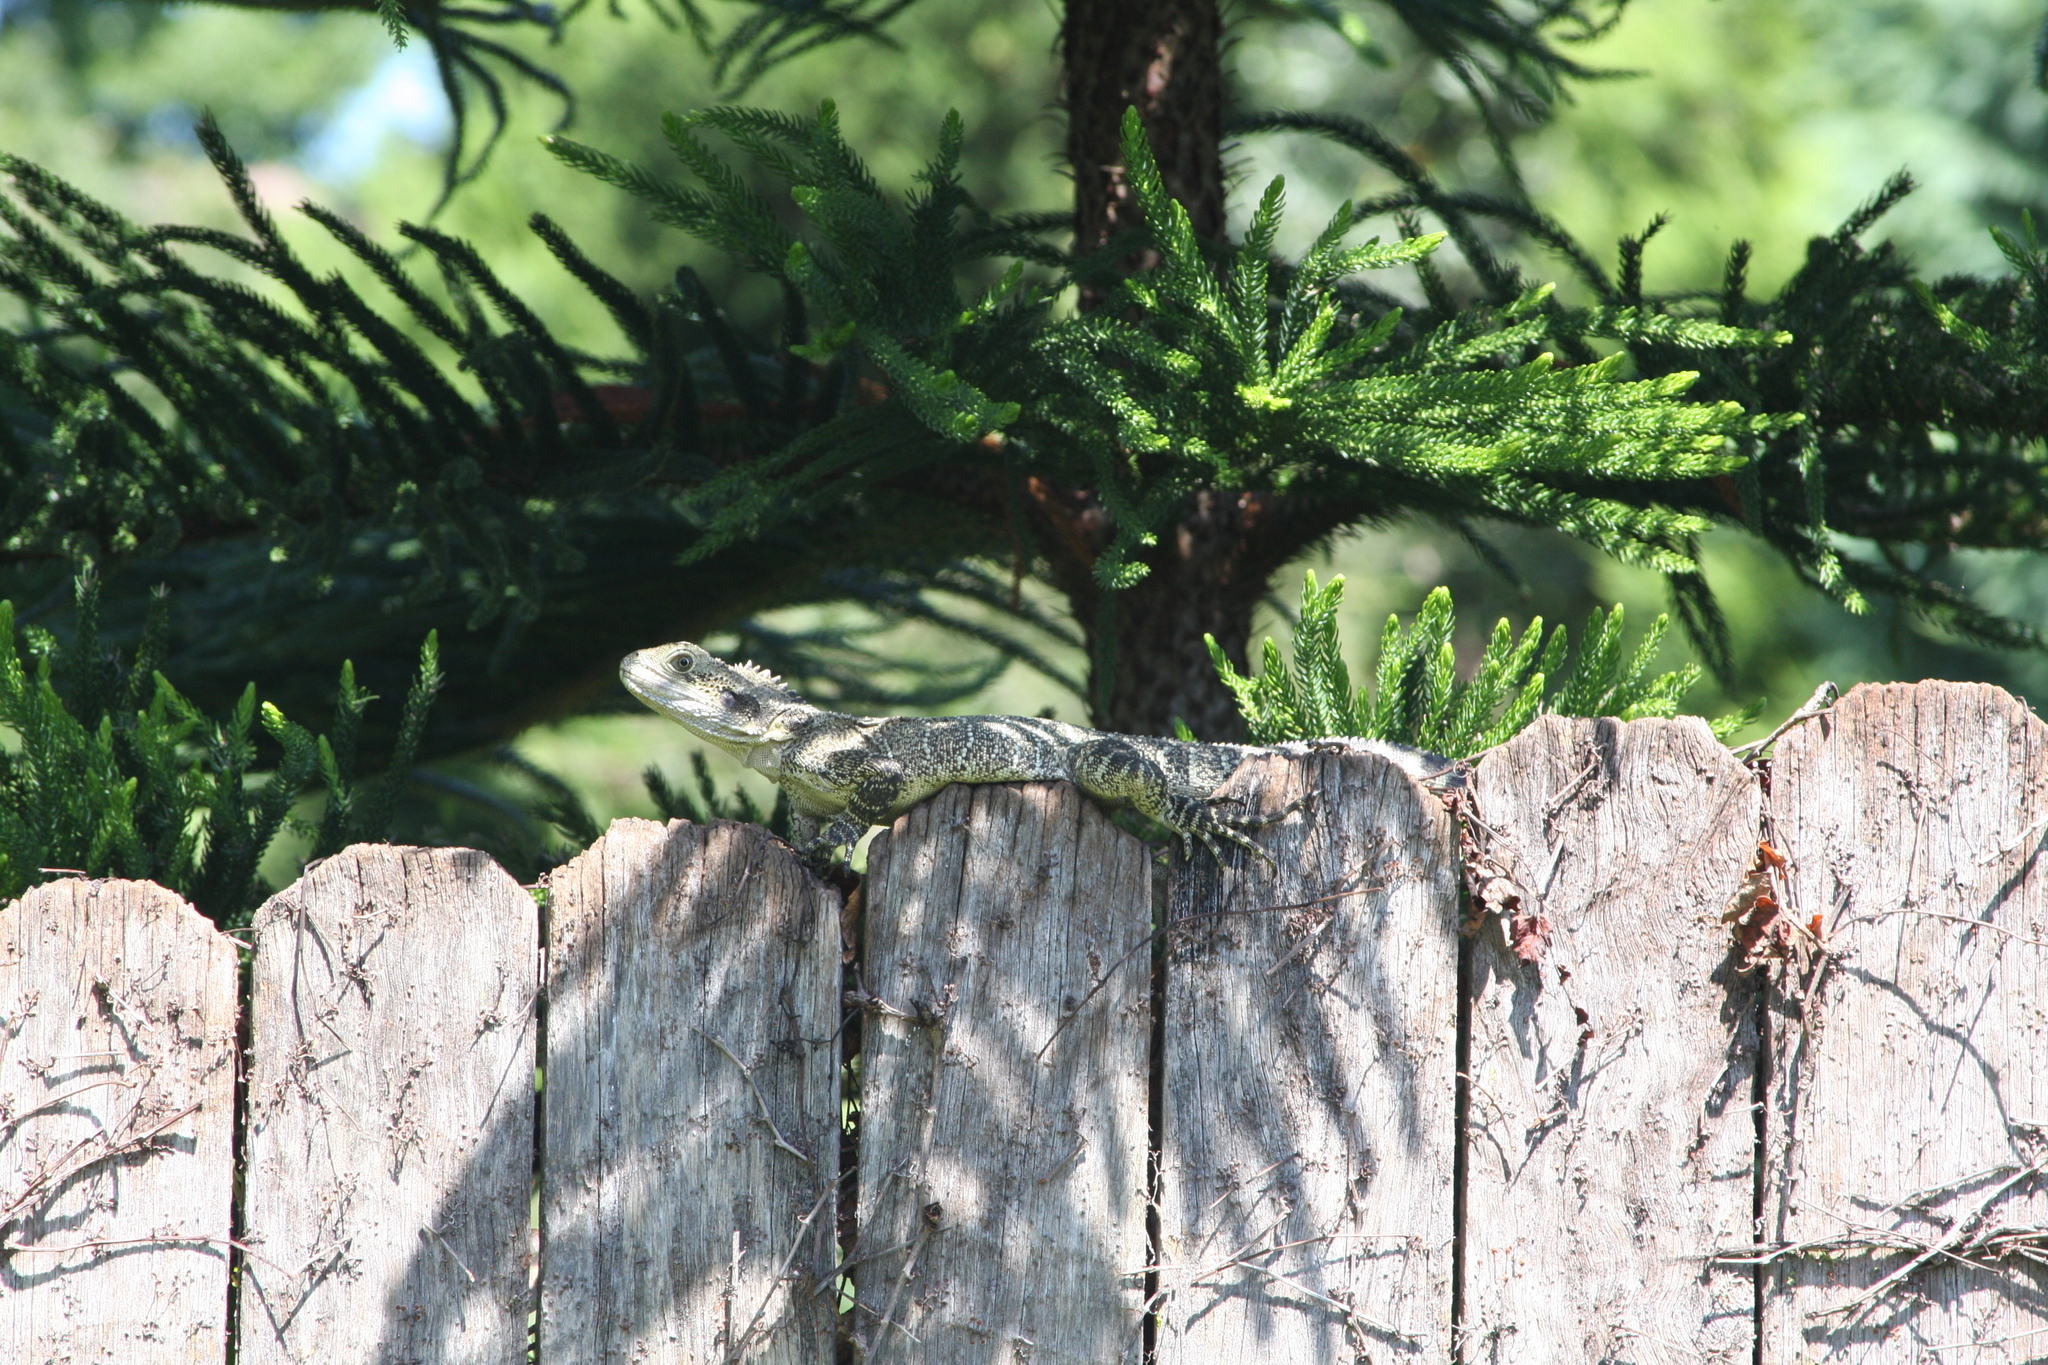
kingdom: Animalia
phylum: Chordata
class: Squamata
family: Agamidae
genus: Intellagama
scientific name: Intellagama lesueurii
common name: Eastern water dragon
